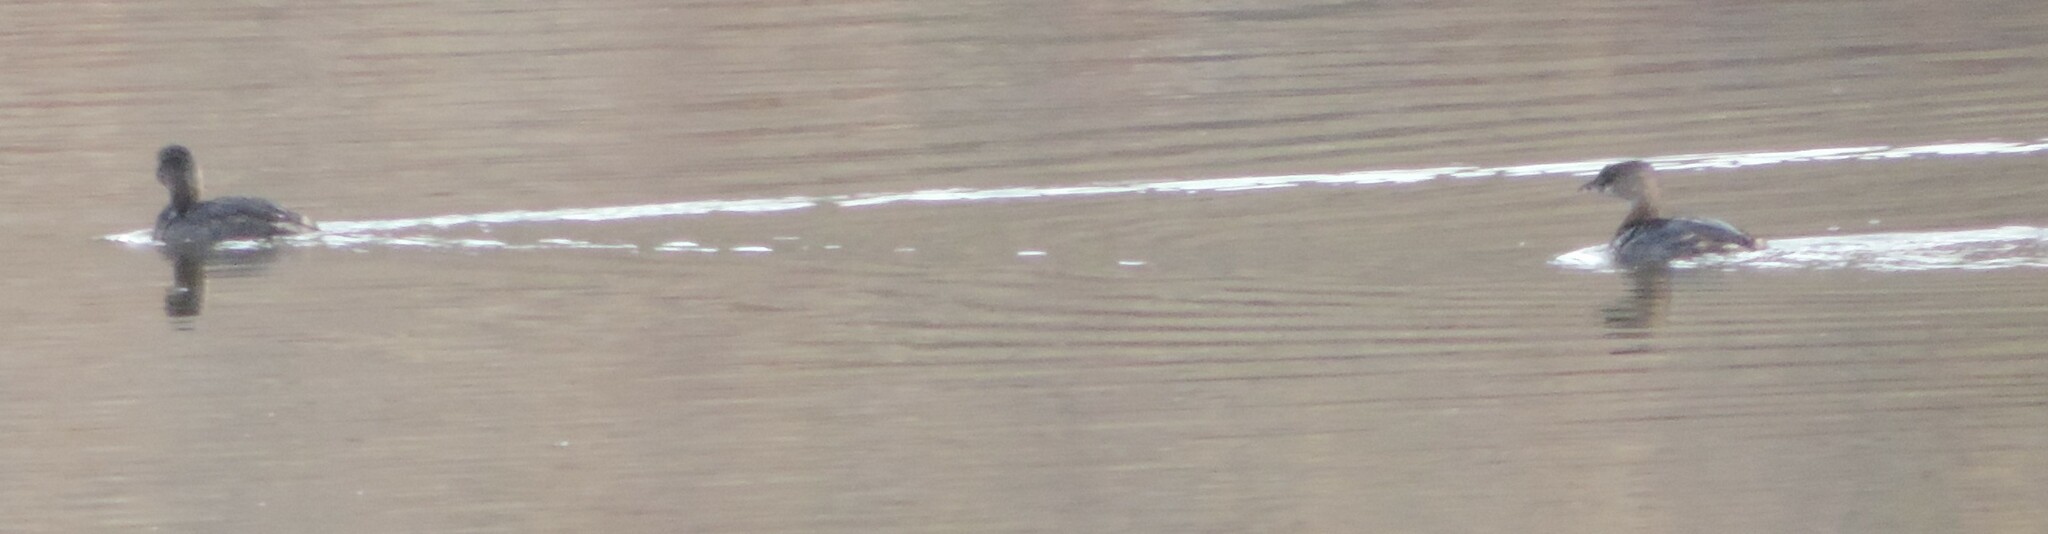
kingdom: Animalia
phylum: Chordata
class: Aves
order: Podicipediformes
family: Podicipedidae
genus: Podilymbus
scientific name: Podilymbus podiceps
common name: Pied-billed grebe
